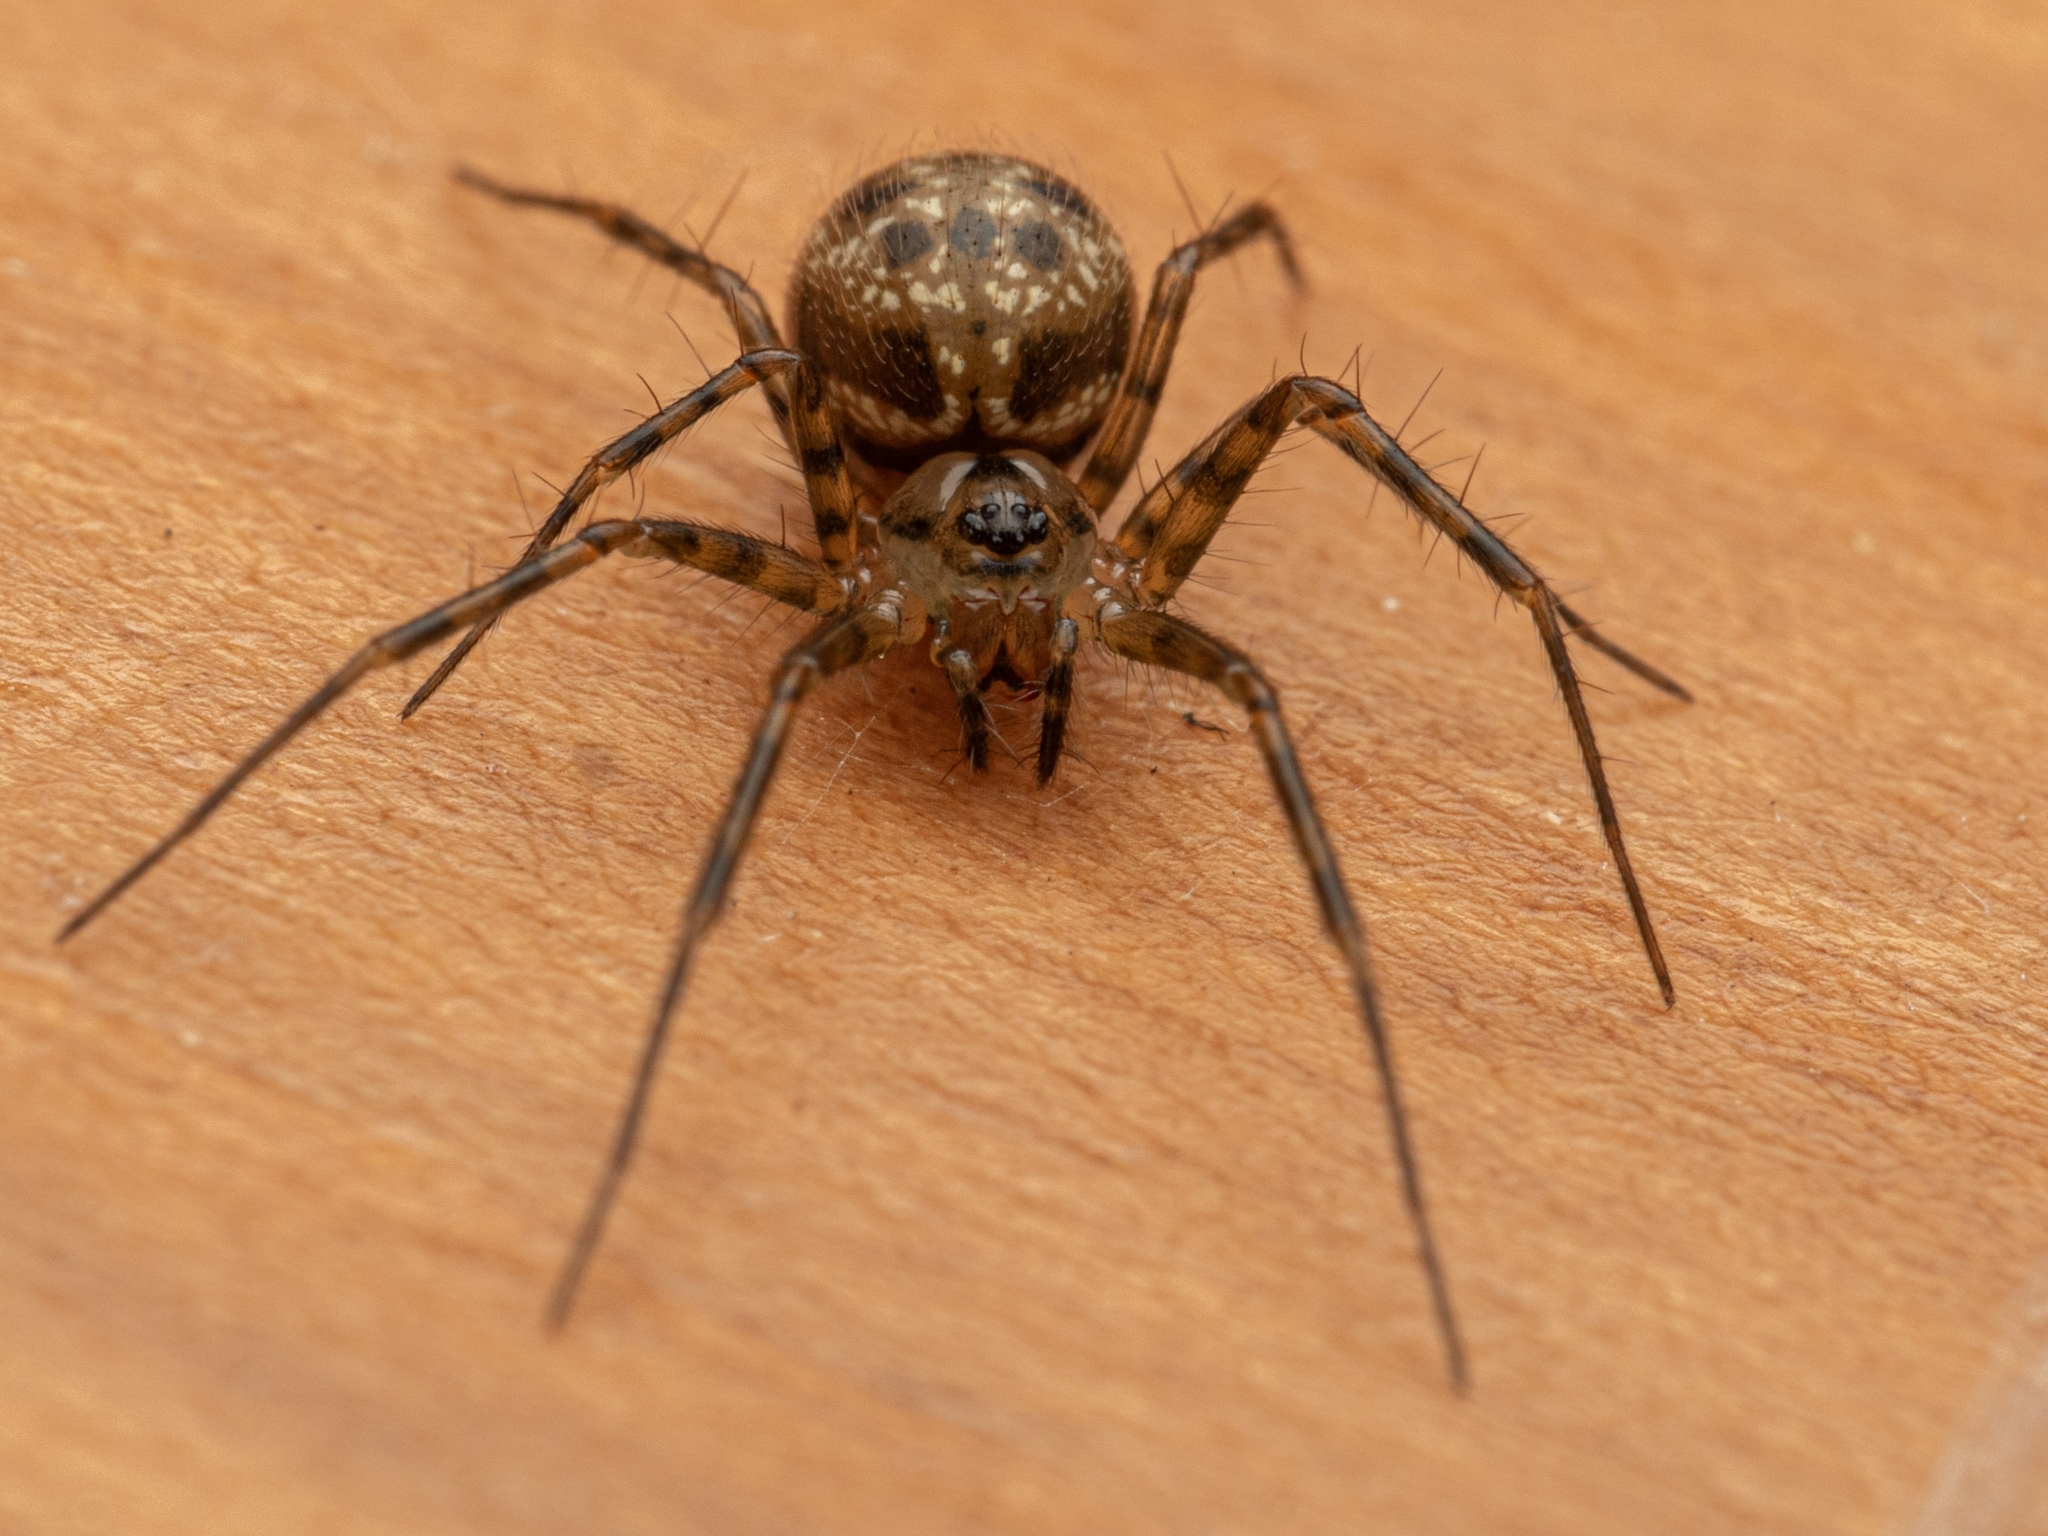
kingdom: Animalia
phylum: Arthropoda
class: Arachnida
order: Araneae
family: Linyphiidae
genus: Labulla
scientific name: Labulla thoracica
